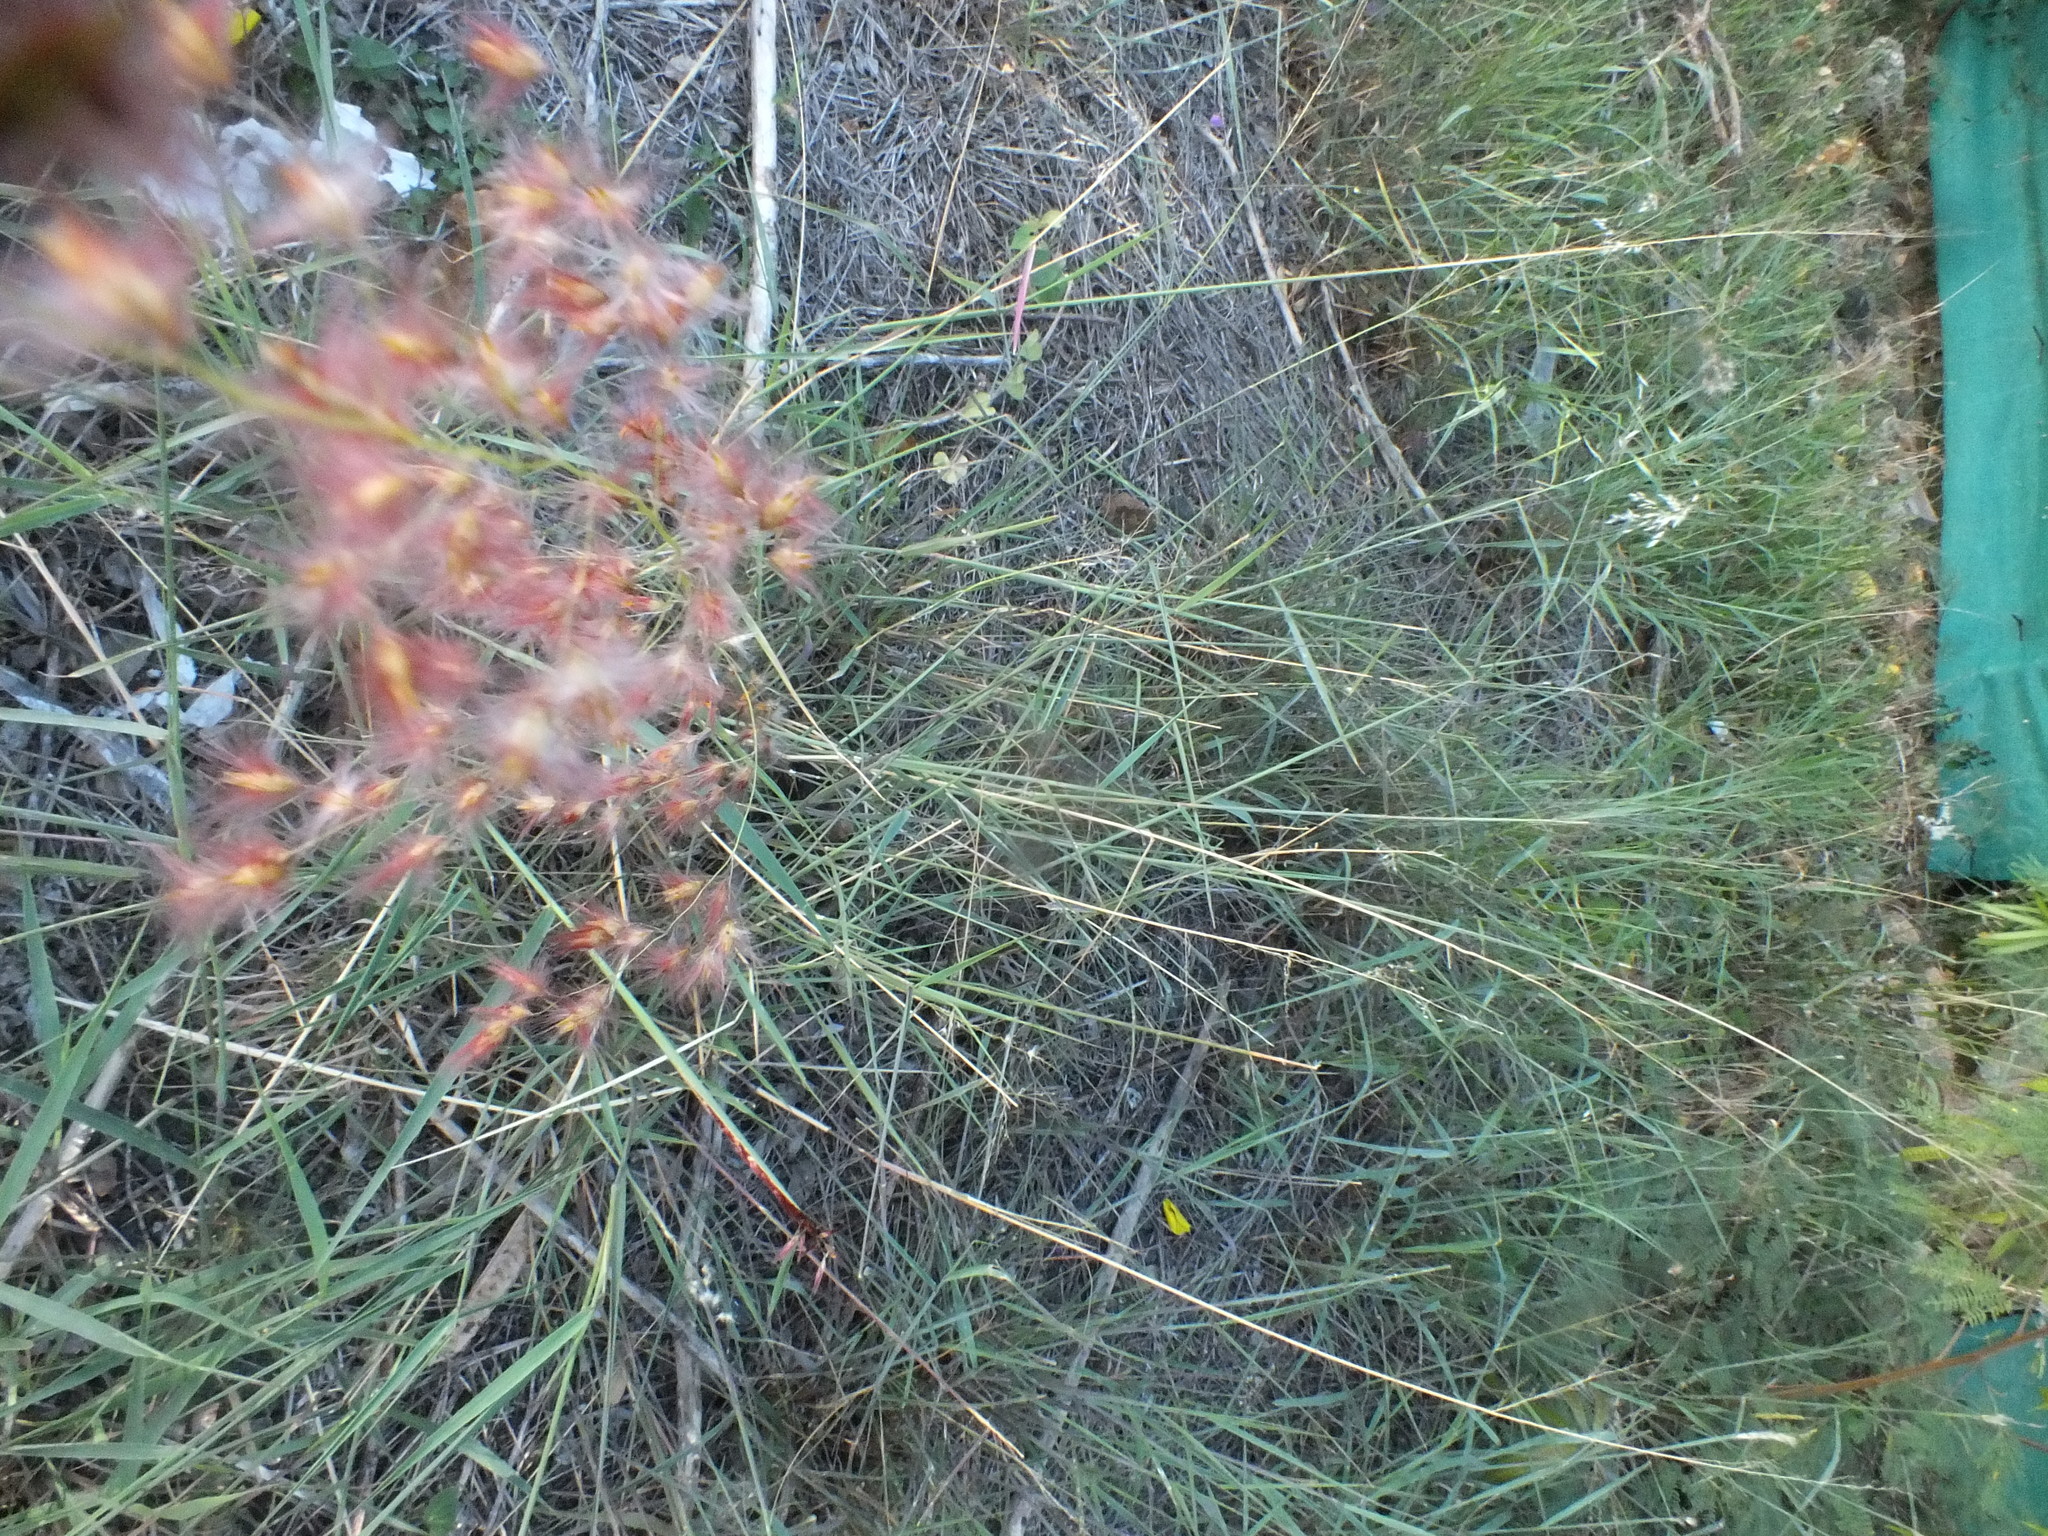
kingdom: Plantae
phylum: Tracheophyta
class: Liliopsida
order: Poales
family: Poaceae
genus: Melinis
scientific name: Melinis repens
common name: Rose natal grass
